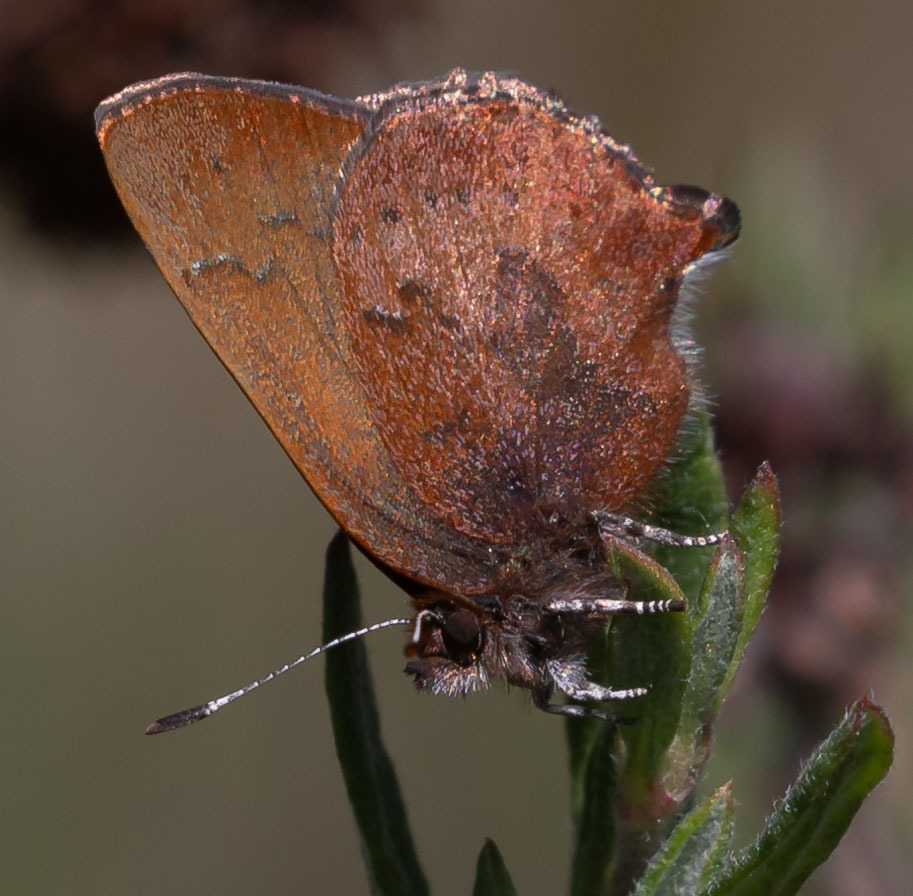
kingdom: Animalia
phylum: Arthropoda
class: Insecta
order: Lepidoptera
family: Lycaenidae
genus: Incisalia
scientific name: Incisalia irioides
